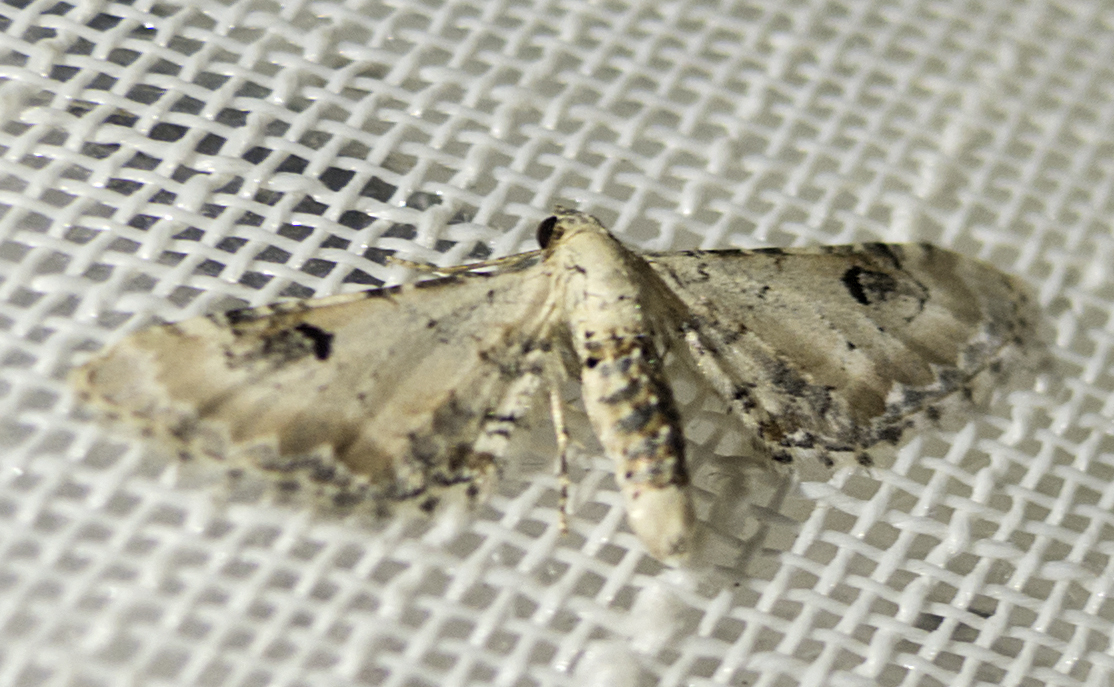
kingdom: Animalia
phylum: Arthropoda
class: Insecta
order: Lepidoptera
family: Geometridae
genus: Eupithecia
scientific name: Eupithecia centaureata
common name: Lime-speck pug
